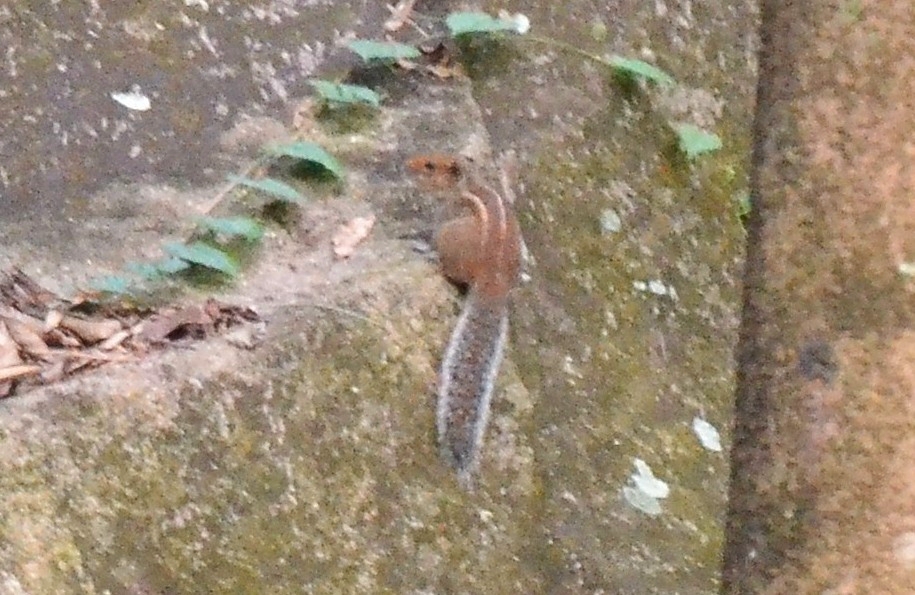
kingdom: Animalia
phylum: Chordata
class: Mammalia
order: Rodentia
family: Sciuridae
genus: Funambulus
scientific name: Funambulus tristriatus
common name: Jungle palm squirrel
